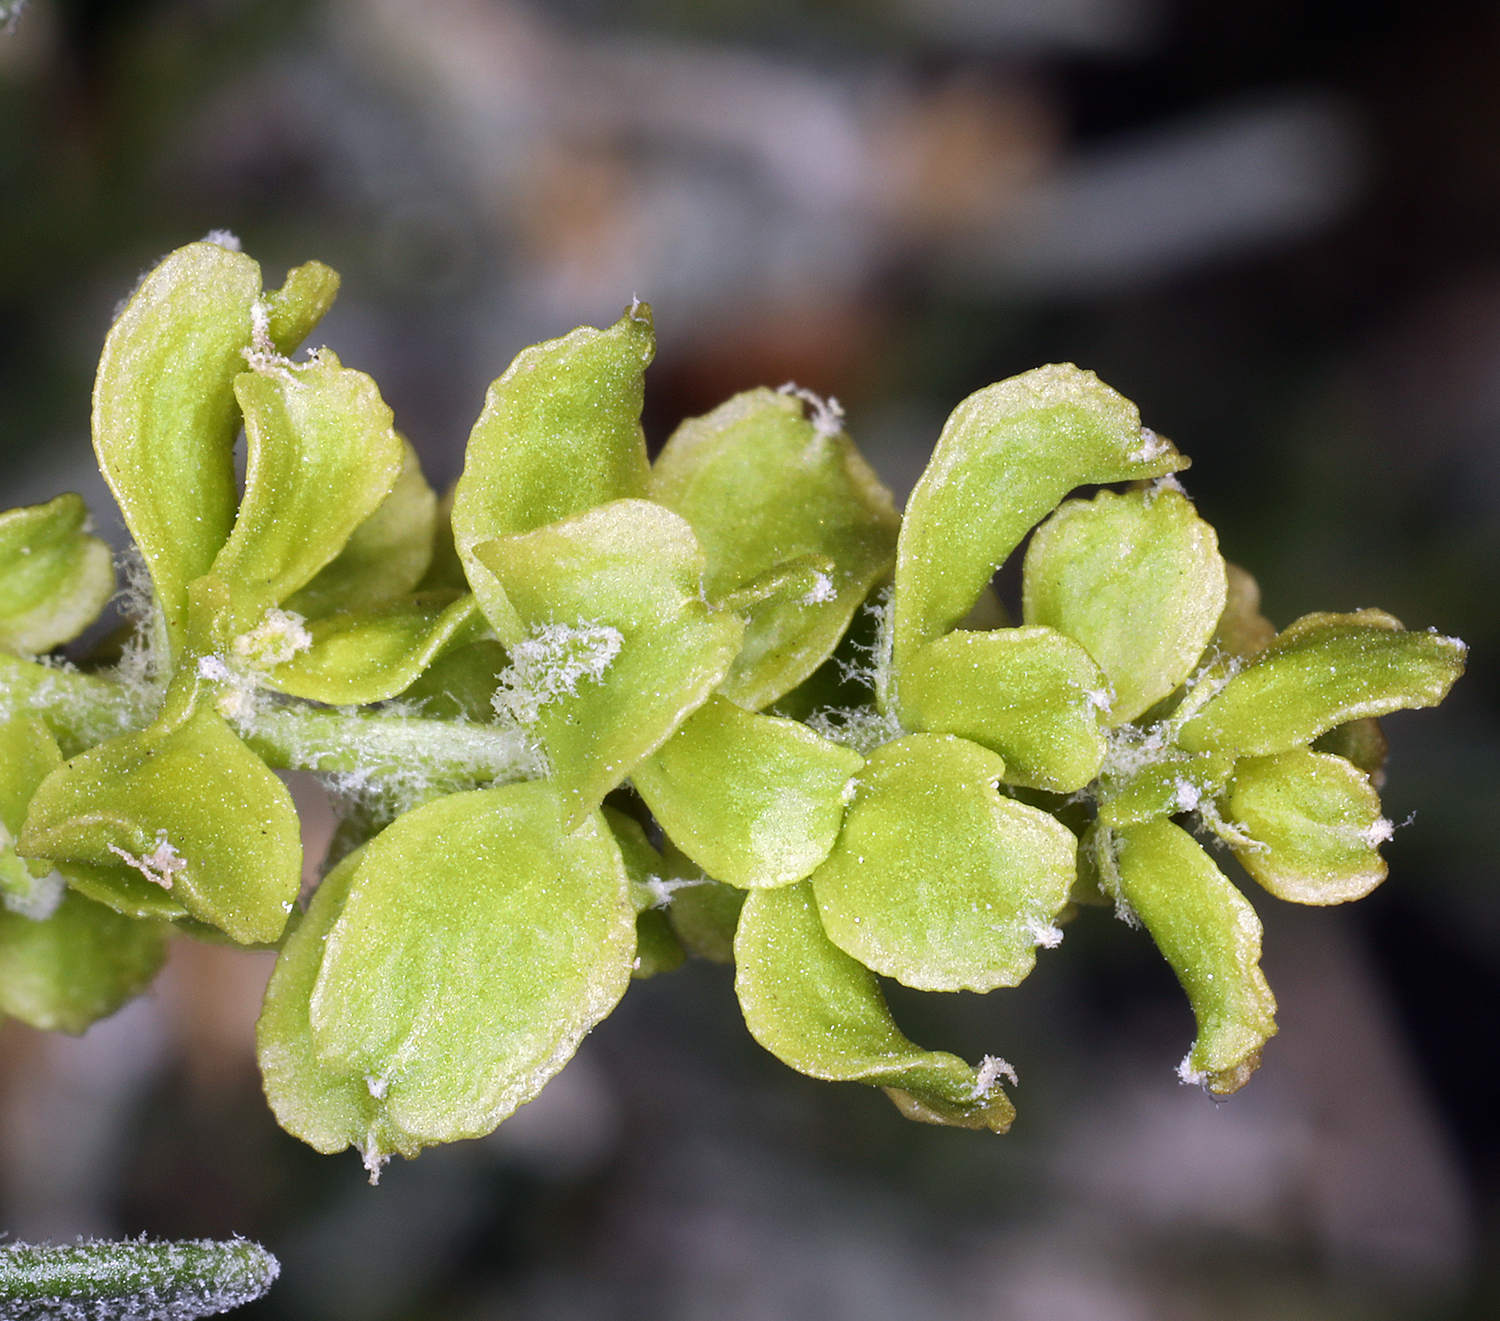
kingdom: Plantae
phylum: Tracheophyta
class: Magnoliopsida
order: Caryophyllales
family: Amaranthaceae
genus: Grayia
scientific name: Grayia spinosa
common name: Spiny hopsage
